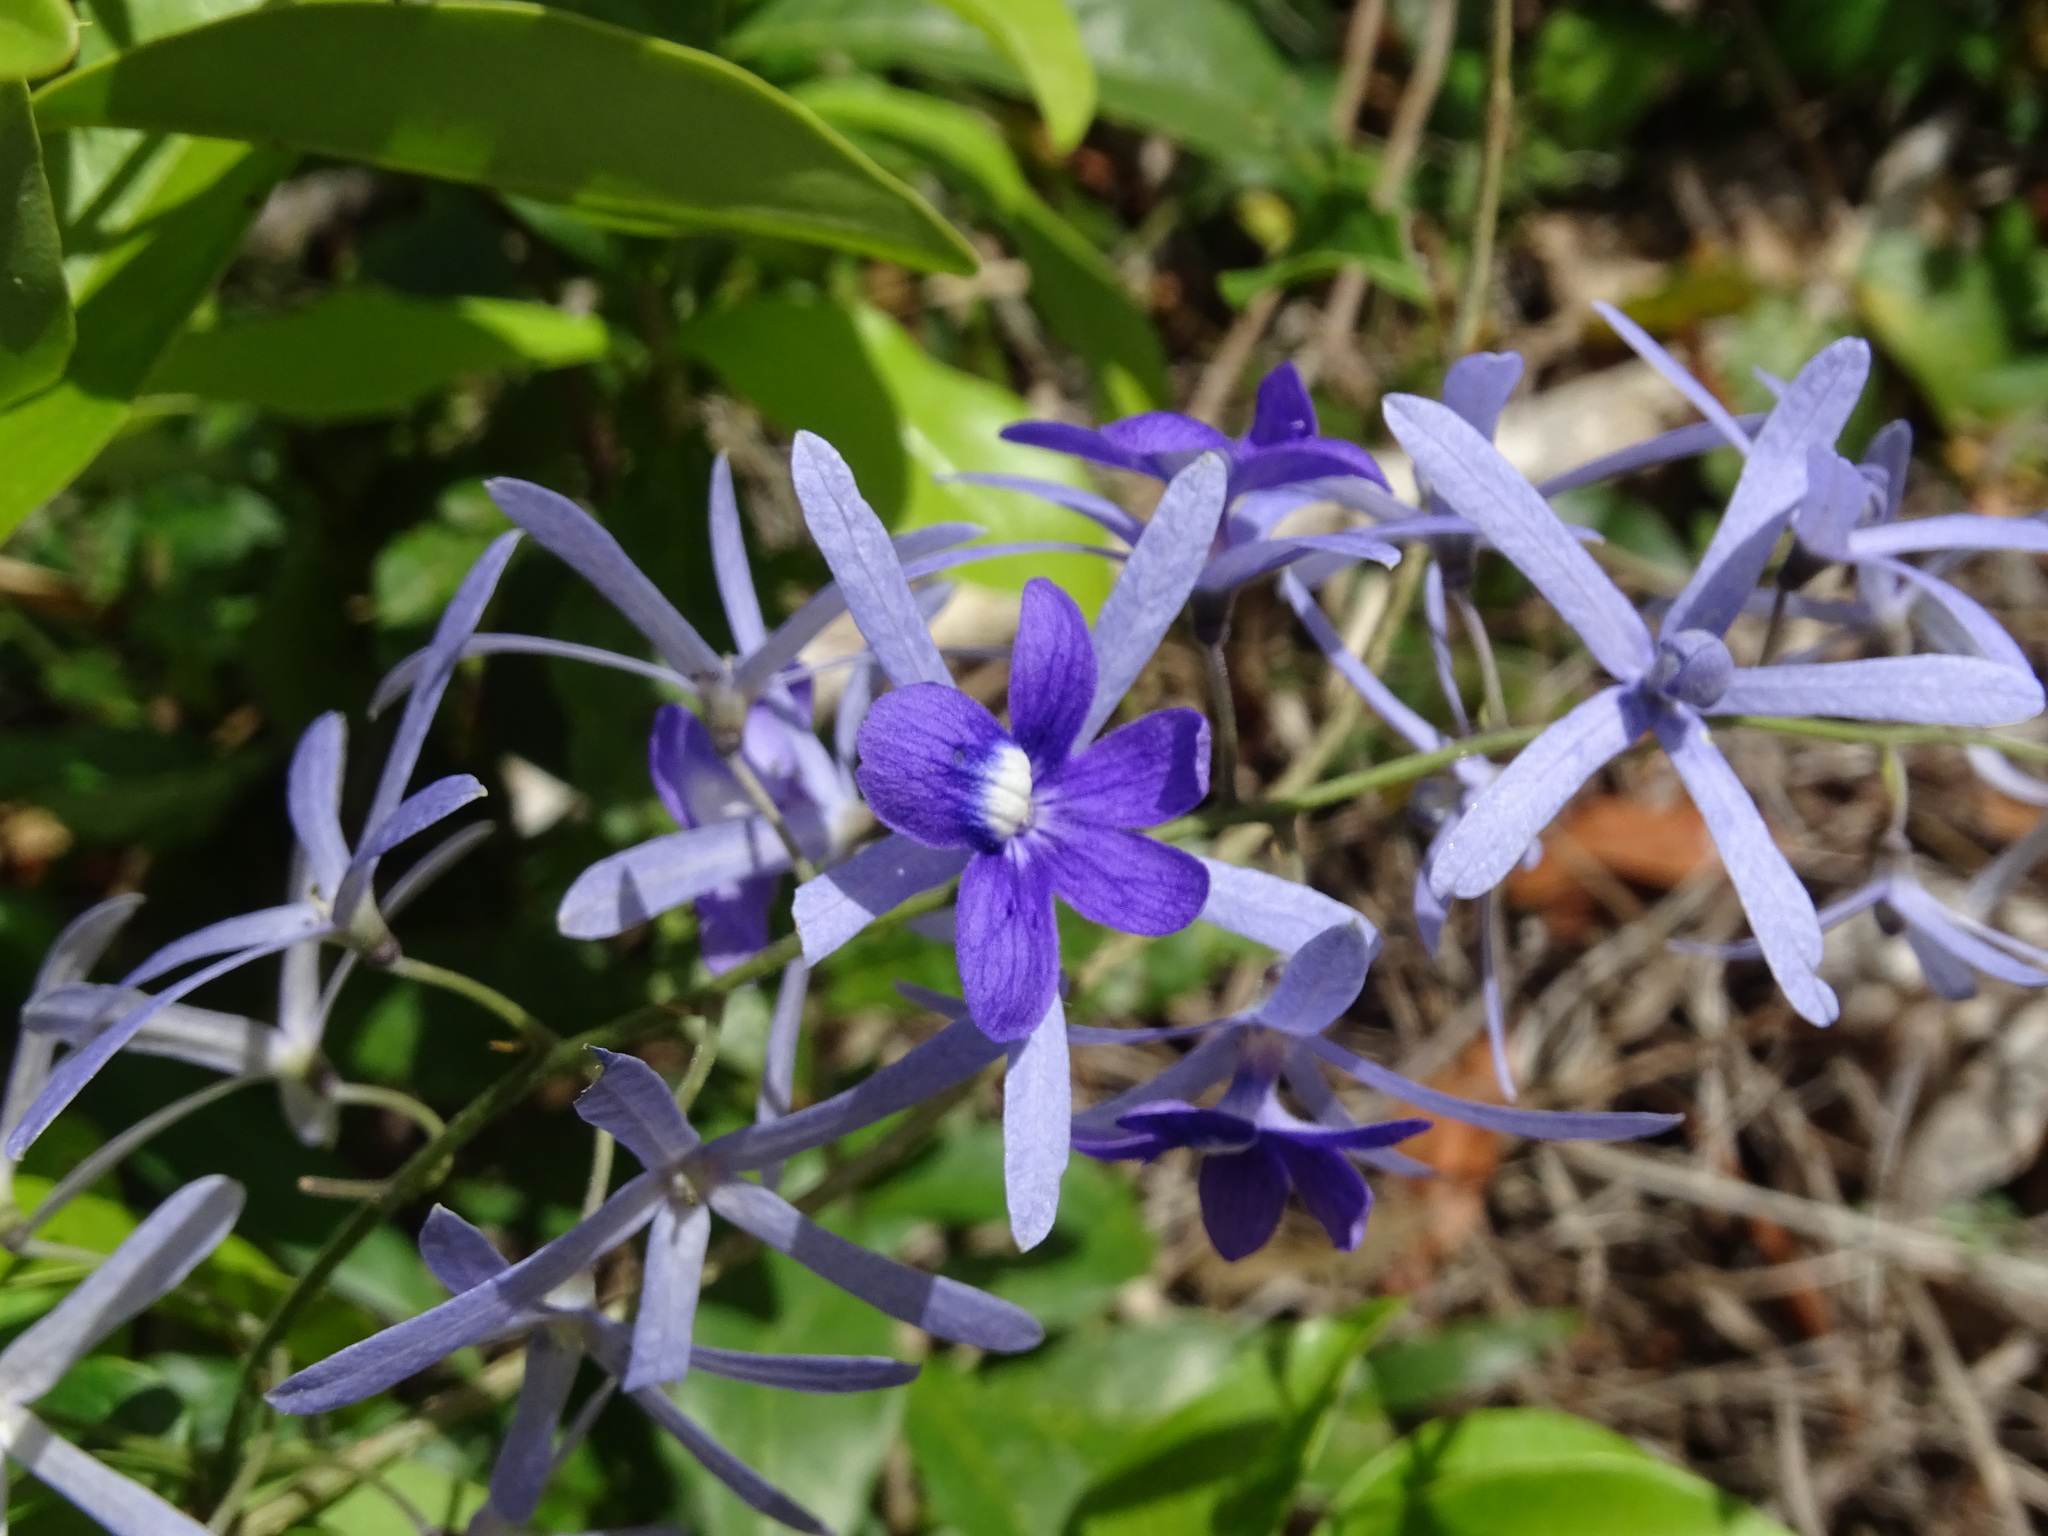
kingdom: Plantae
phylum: Tracheophyta
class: Magnoliopsida
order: Lamiales
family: Verbenaceae
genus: Petrea
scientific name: Petrea volubilis
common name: Queen's-wreath
